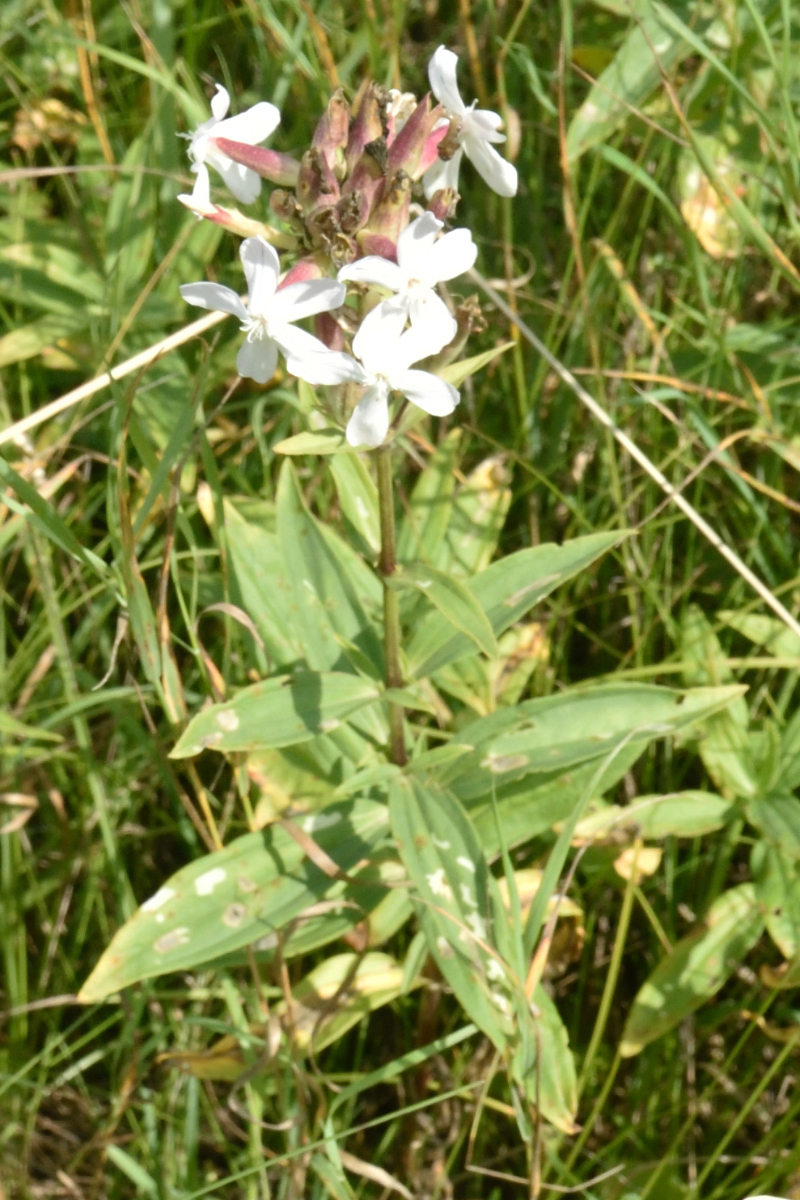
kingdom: Plantae
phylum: Tracheophyta
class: Magnoliopsida
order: Caryophyllales
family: Caryophyllaceae
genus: Saponaria
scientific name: Saponaria officinalis
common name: Soapwort
